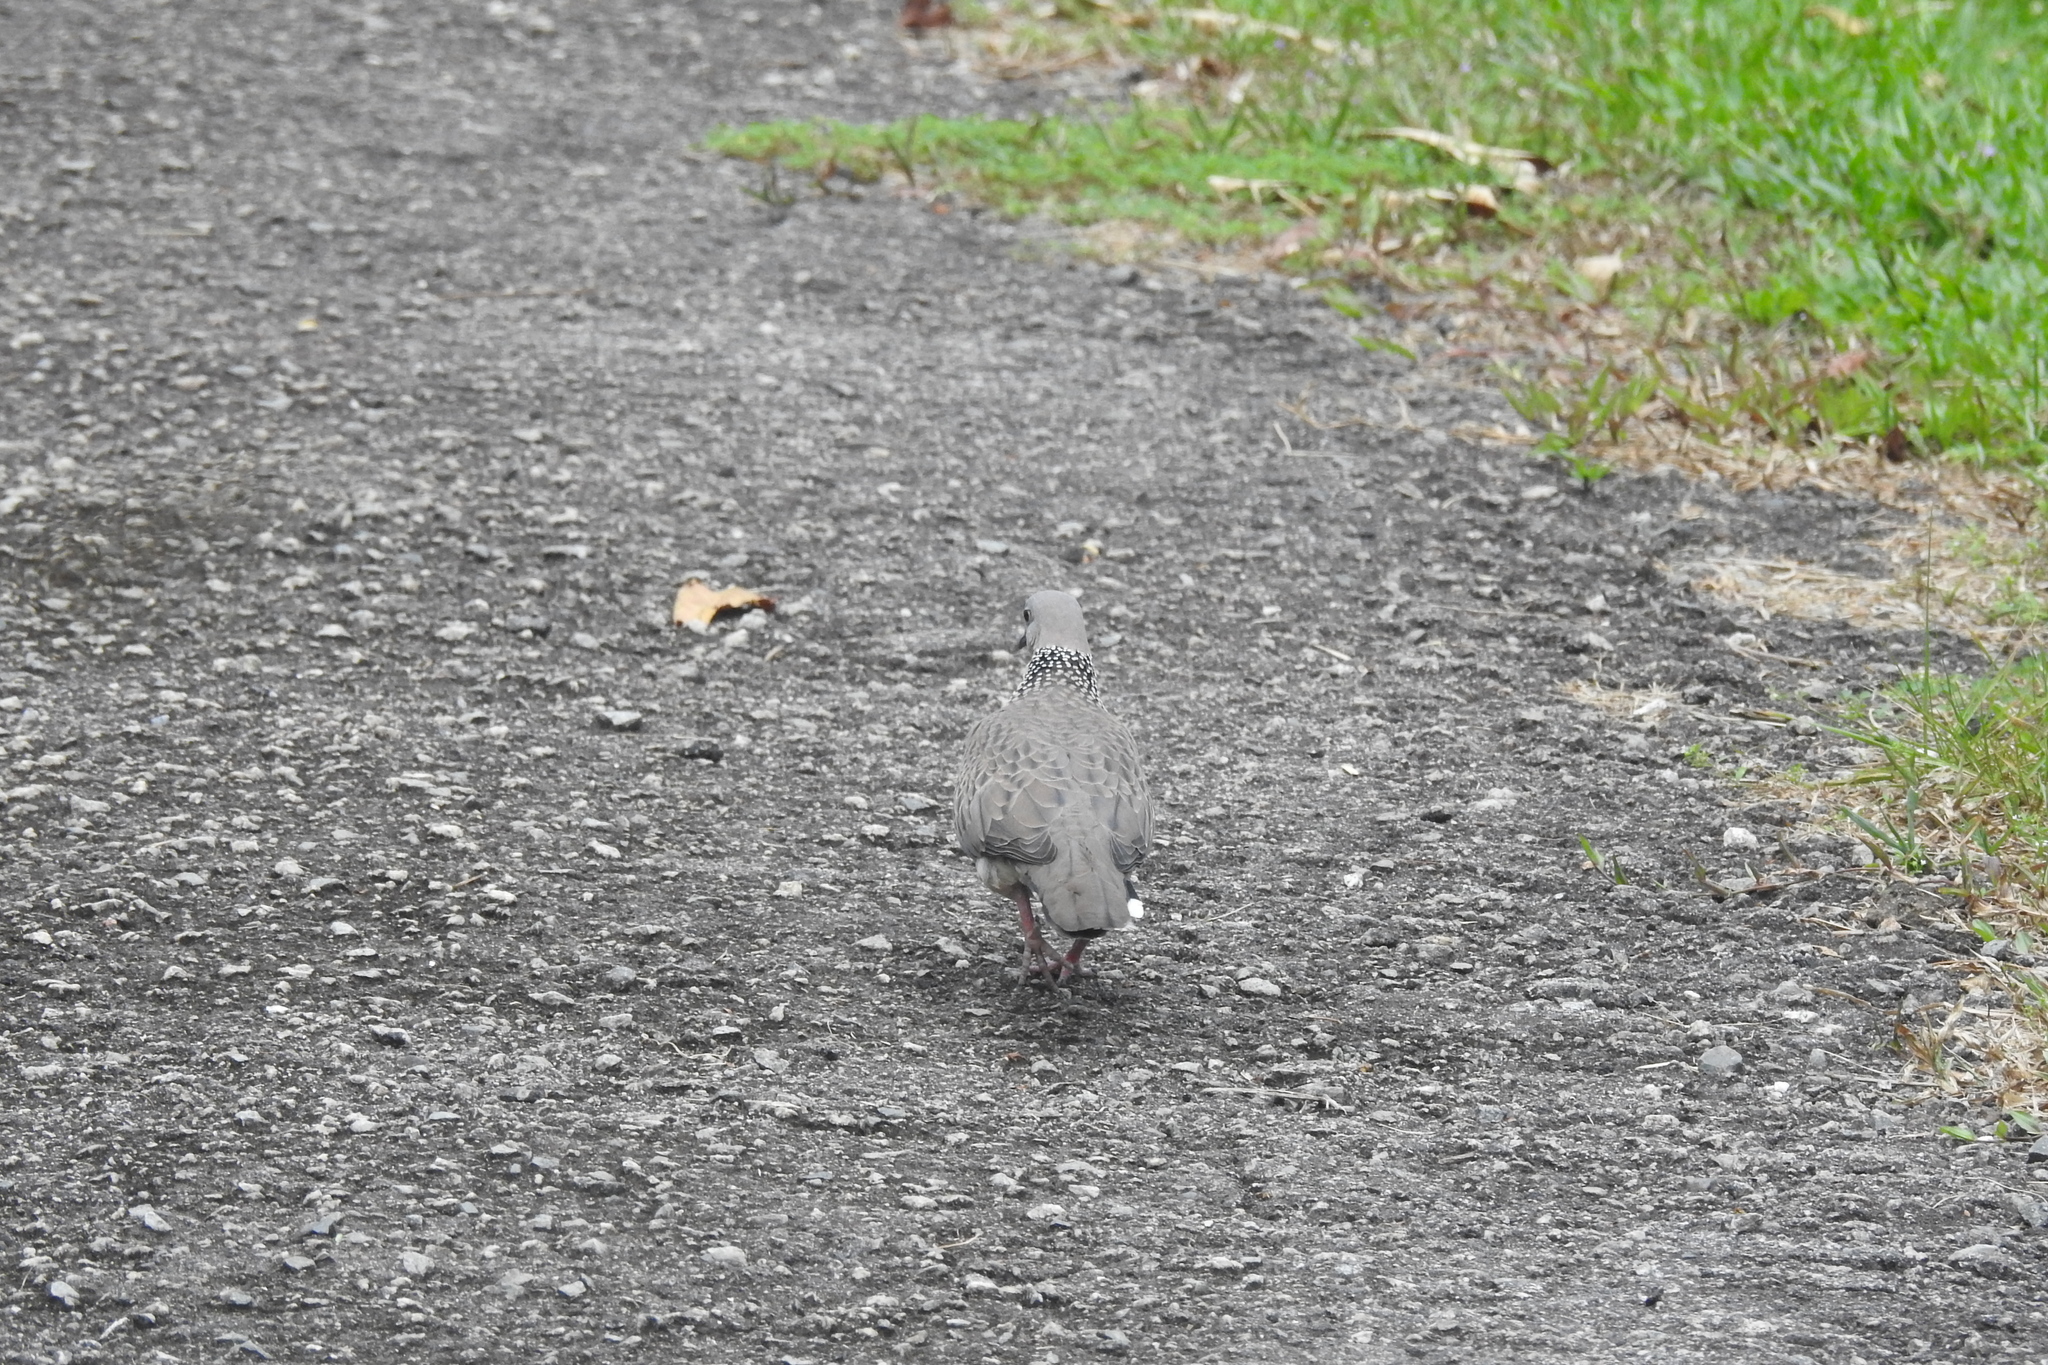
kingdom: Animalia
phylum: Chordata
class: Aves
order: Columbiformes
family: Columbidae
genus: Spilopelia
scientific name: Spilopelia chinensis
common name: Spotted dove
